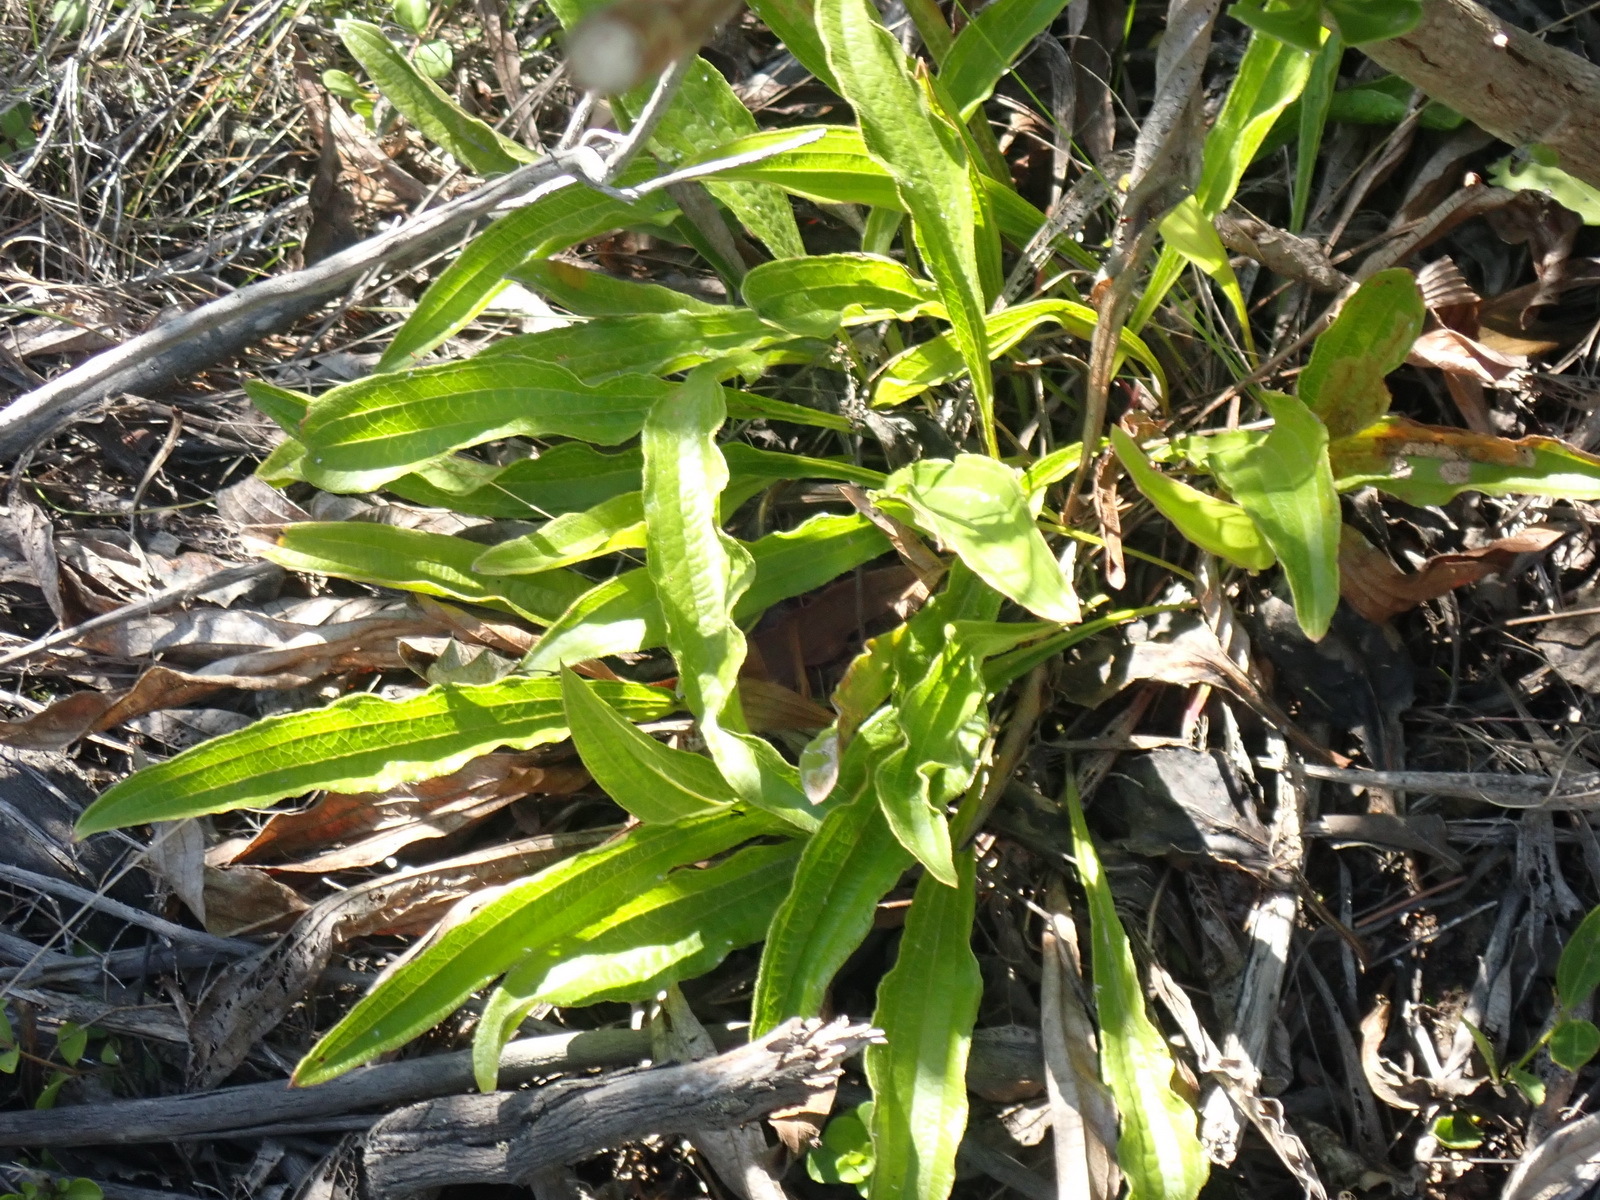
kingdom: Plantae
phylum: Tracheophyta
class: Magnoliopsida
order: Asterales
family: Asteraceae
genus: Helichrysum
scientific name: Helichrysum nudifolium
